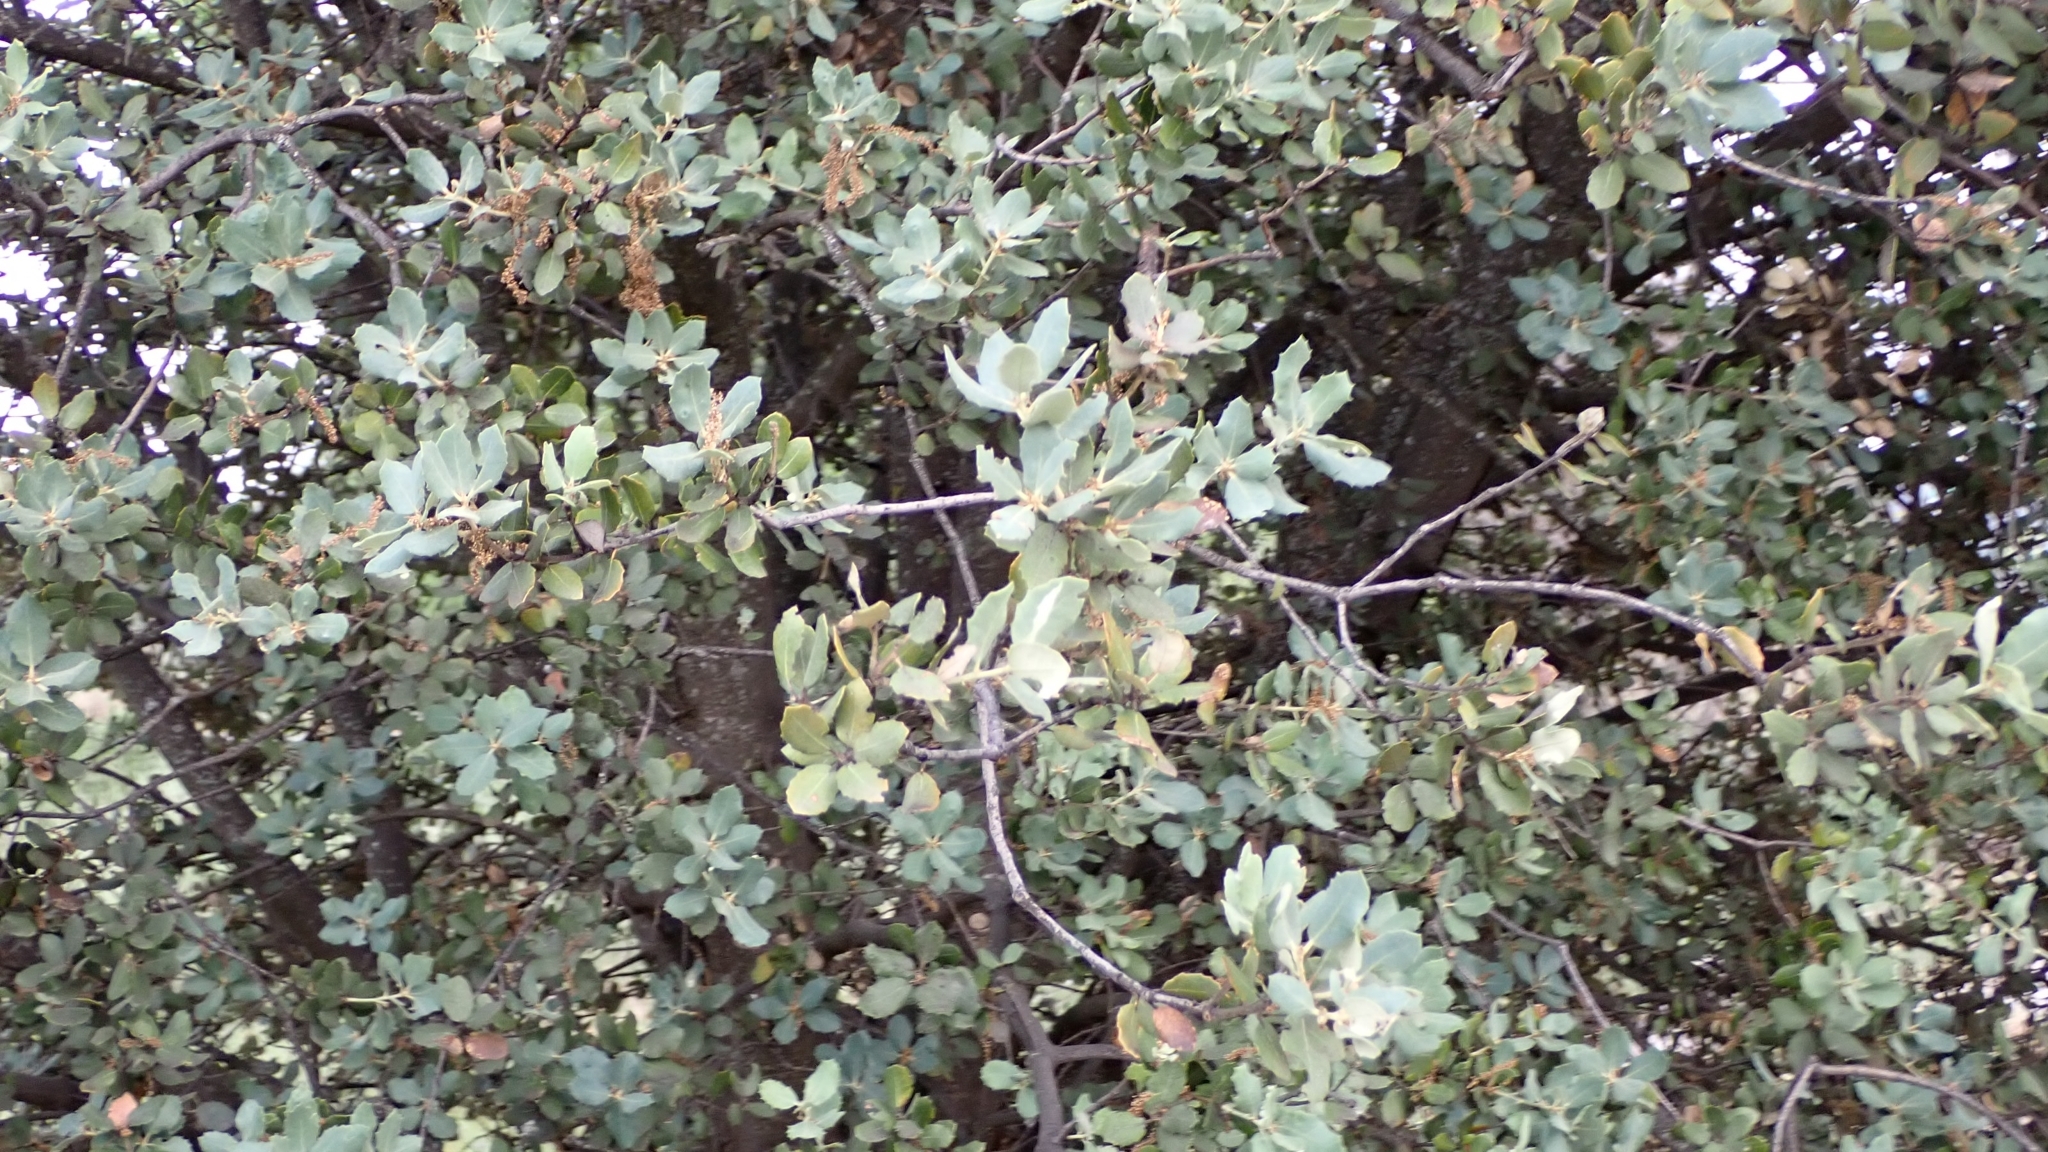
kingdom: Plantae
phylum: Tracheophyta
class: Magnoliopsida
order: Fagales
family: Fagaceae
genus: Quercus
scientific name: Quercus rotundifolia
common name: Holm oak
